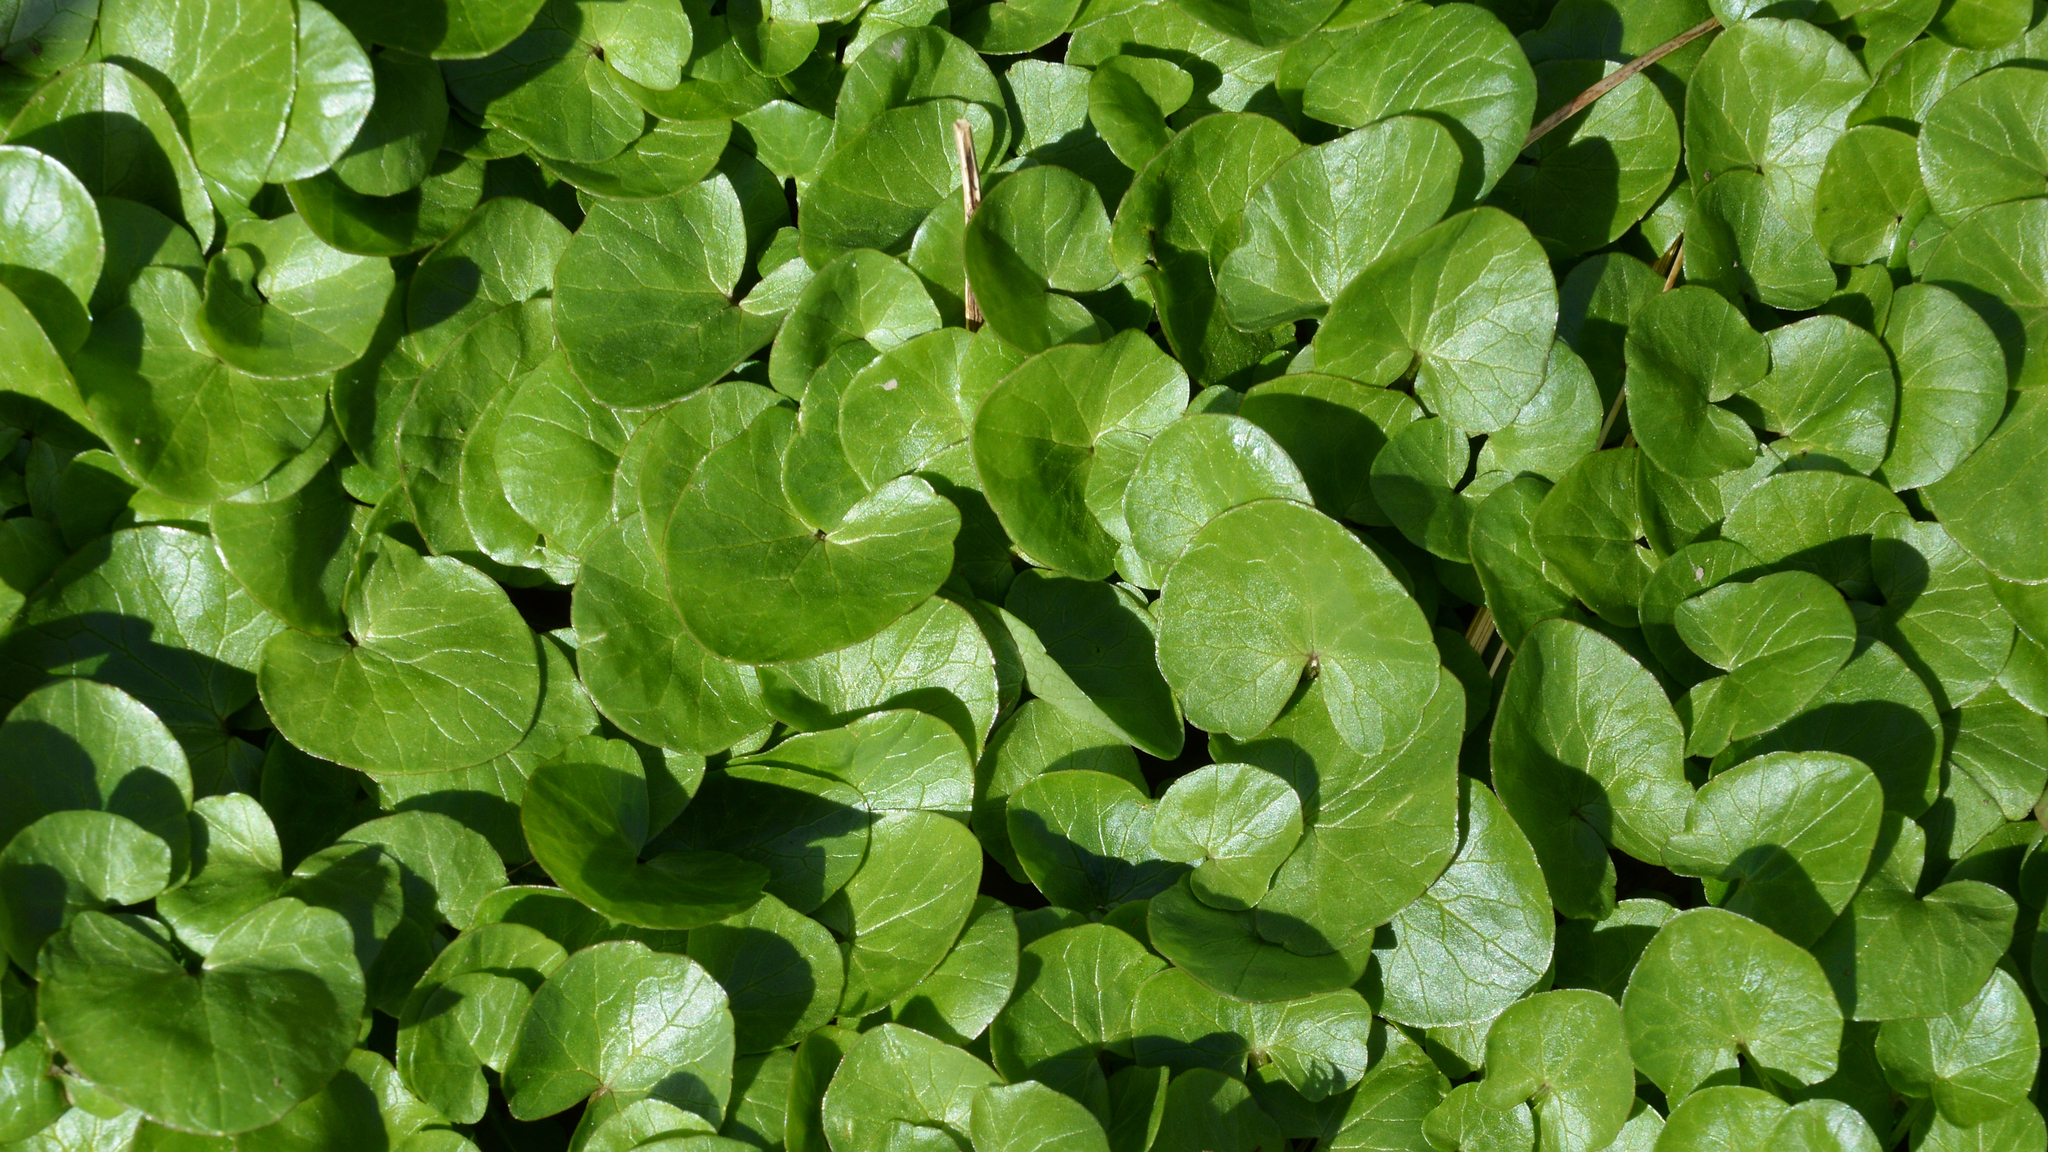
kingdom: Plantae
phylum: Tracheophyta
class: Magnoliopsida
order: Ranunculales
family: Ranunculaceae
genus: Ficaria
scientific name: Ficaria verna
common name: Lesser celandine
